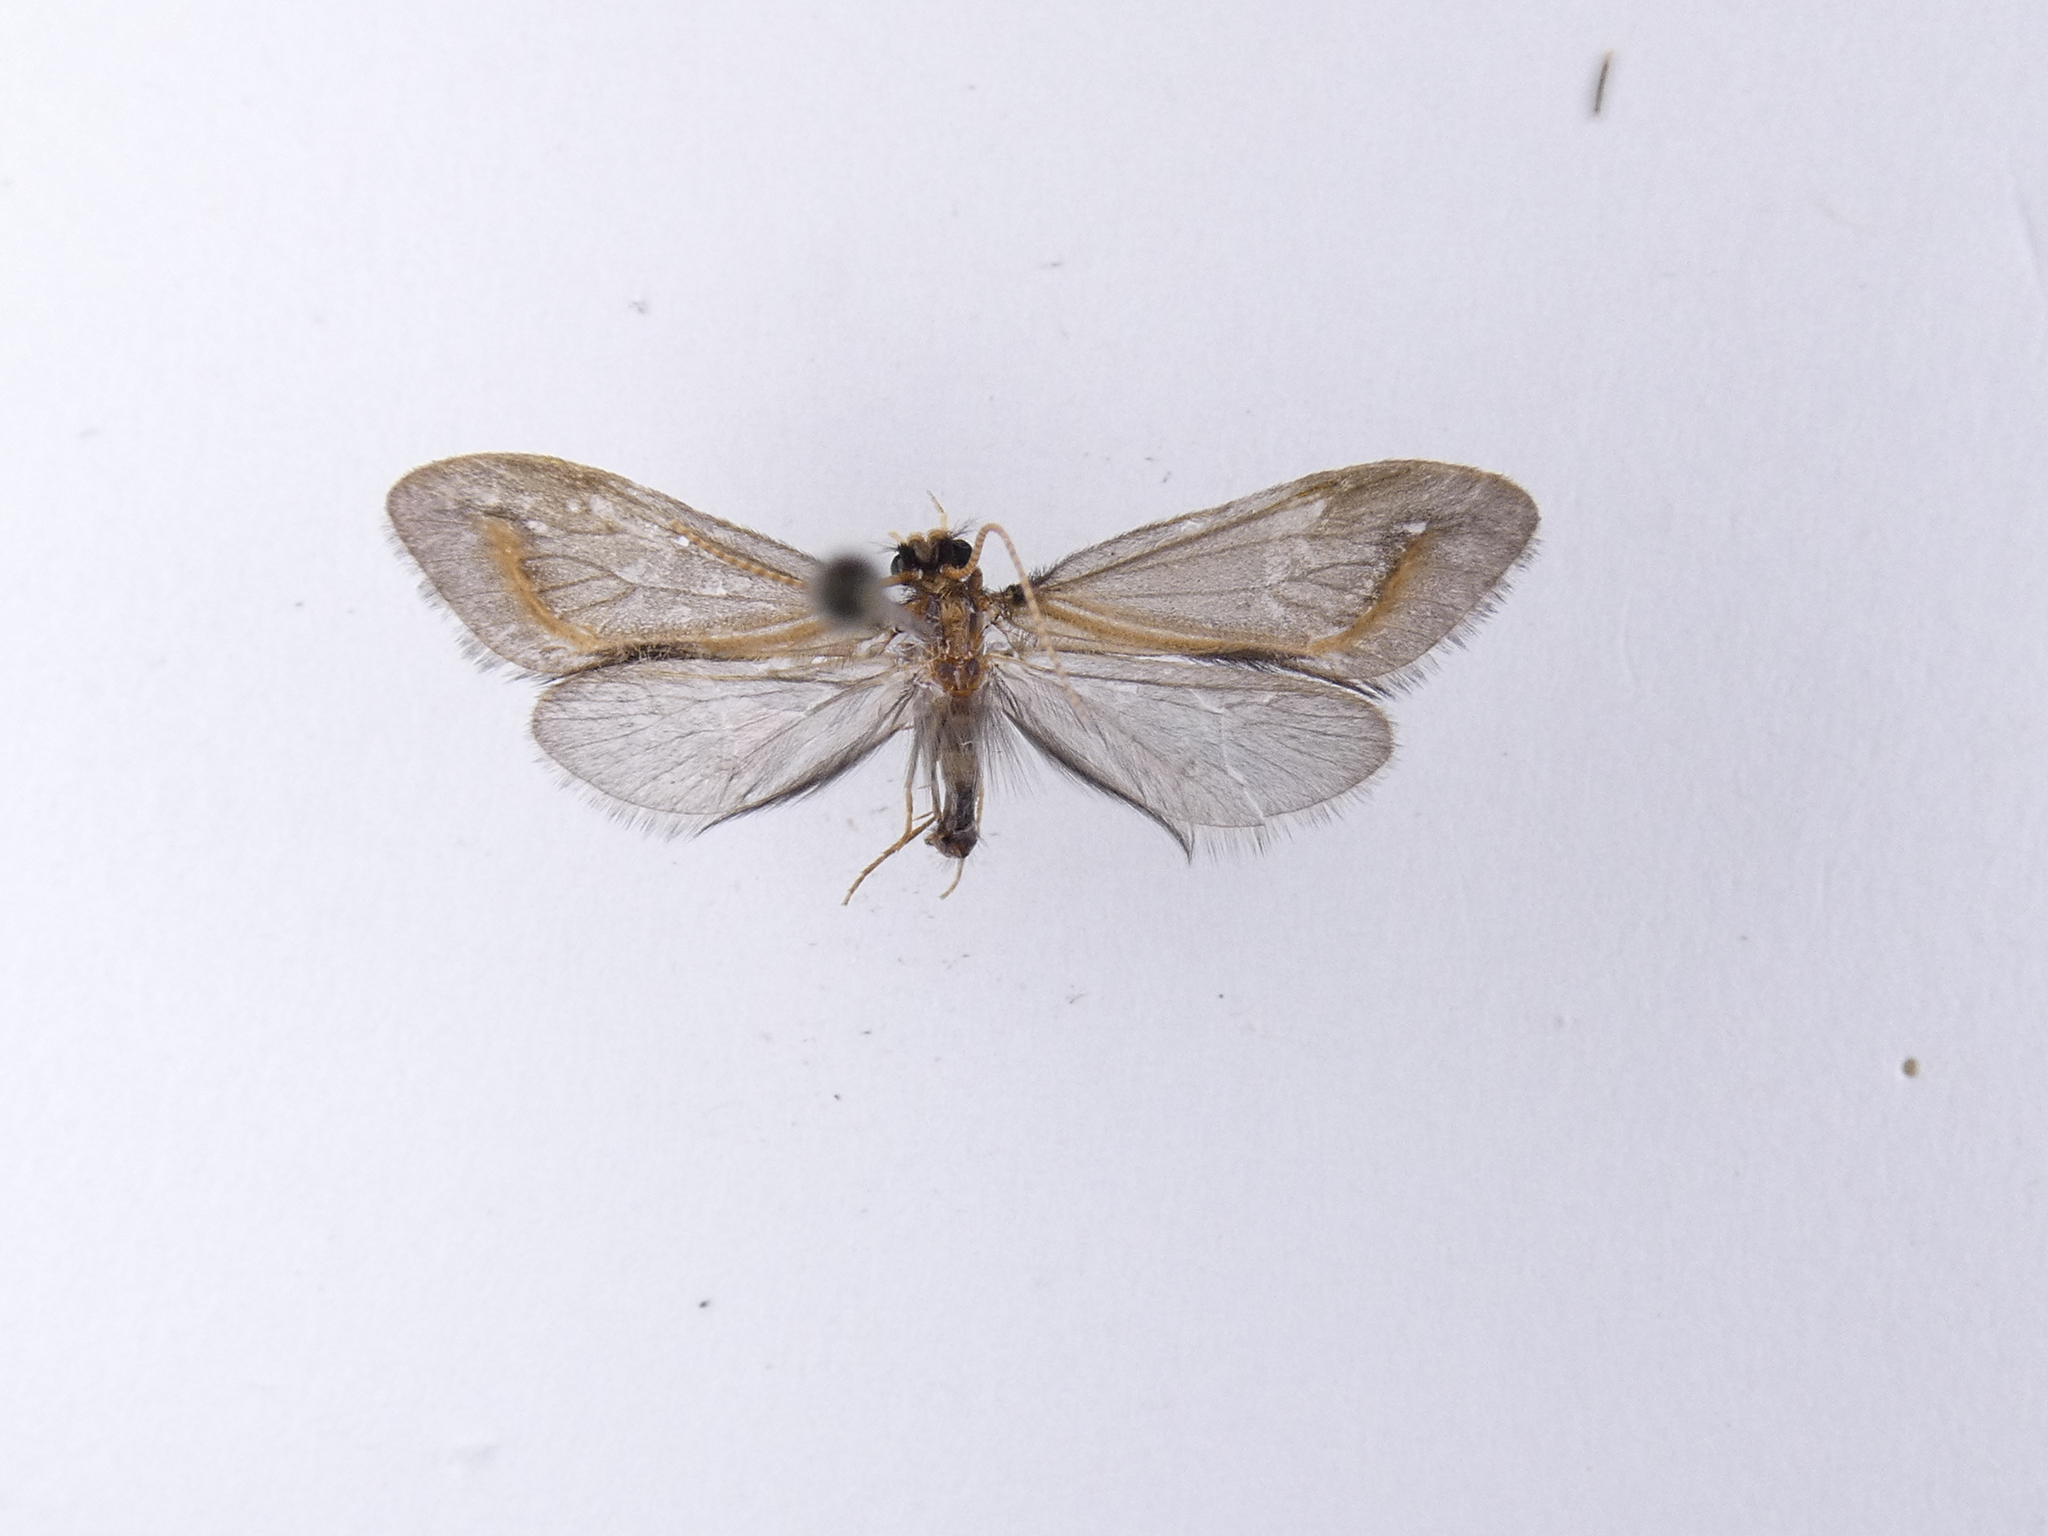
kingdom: Animalia
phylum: Arthropoda
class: Insecta
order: Trichoptera
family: Conoesucidae
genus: Olinga
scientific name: Olinga feredayi
